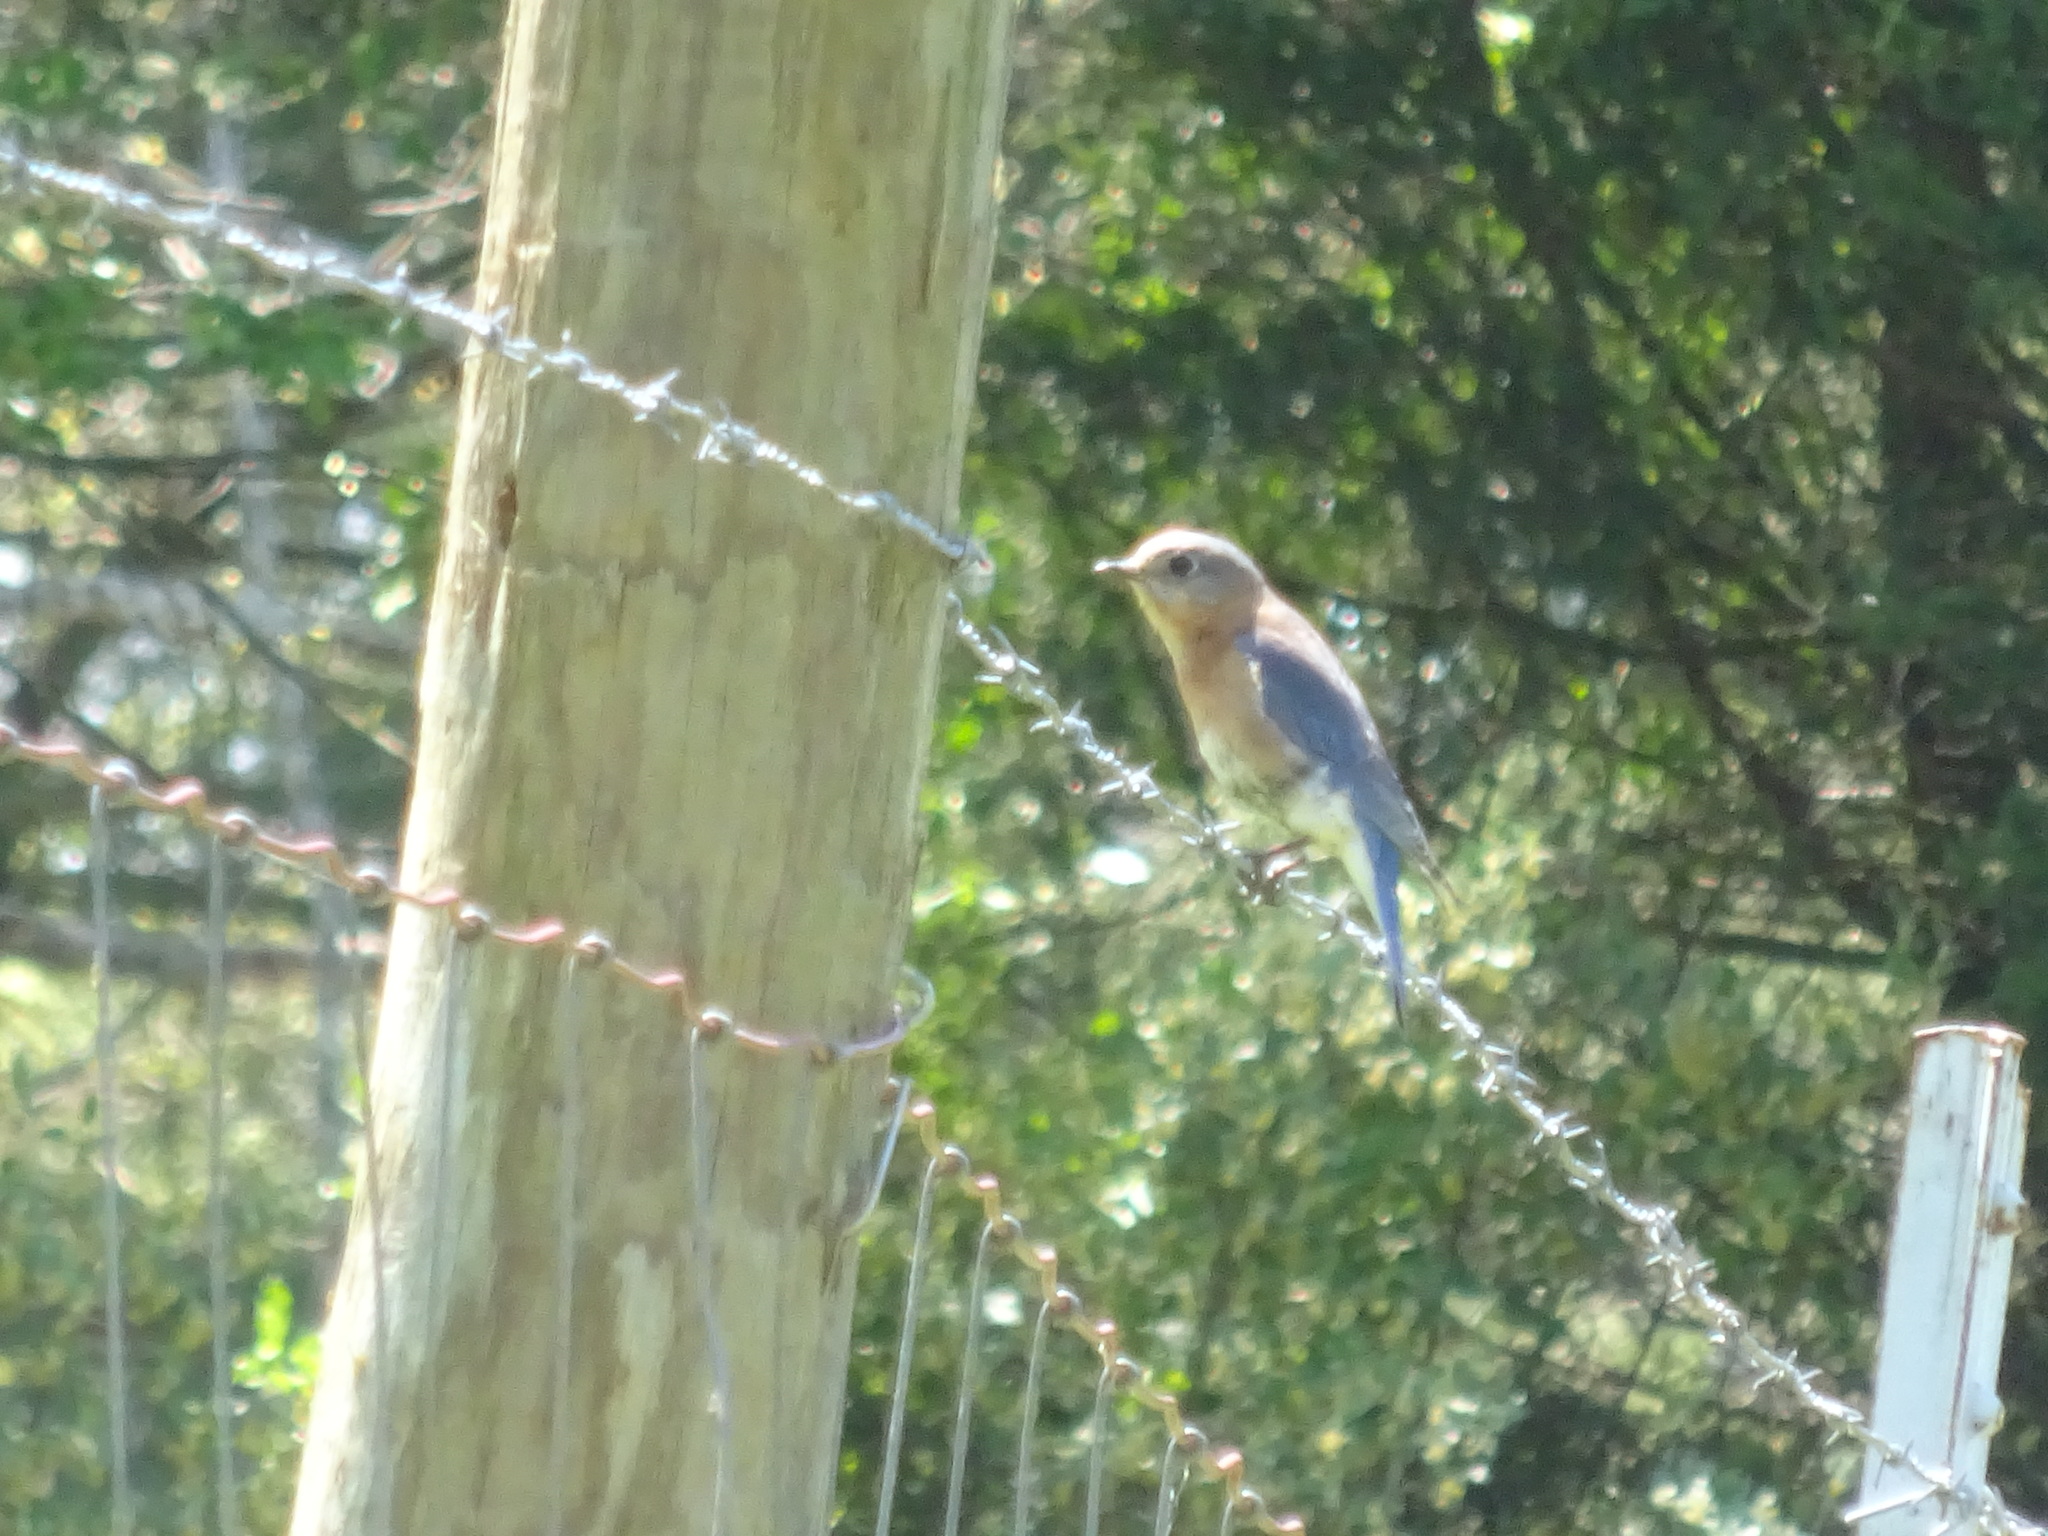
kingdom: Animalia
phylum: Chordata
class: Aves
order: Passeriformes
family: Turdidae
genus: Sialia
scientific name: Sialia sialis
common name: Eastern bluebird
